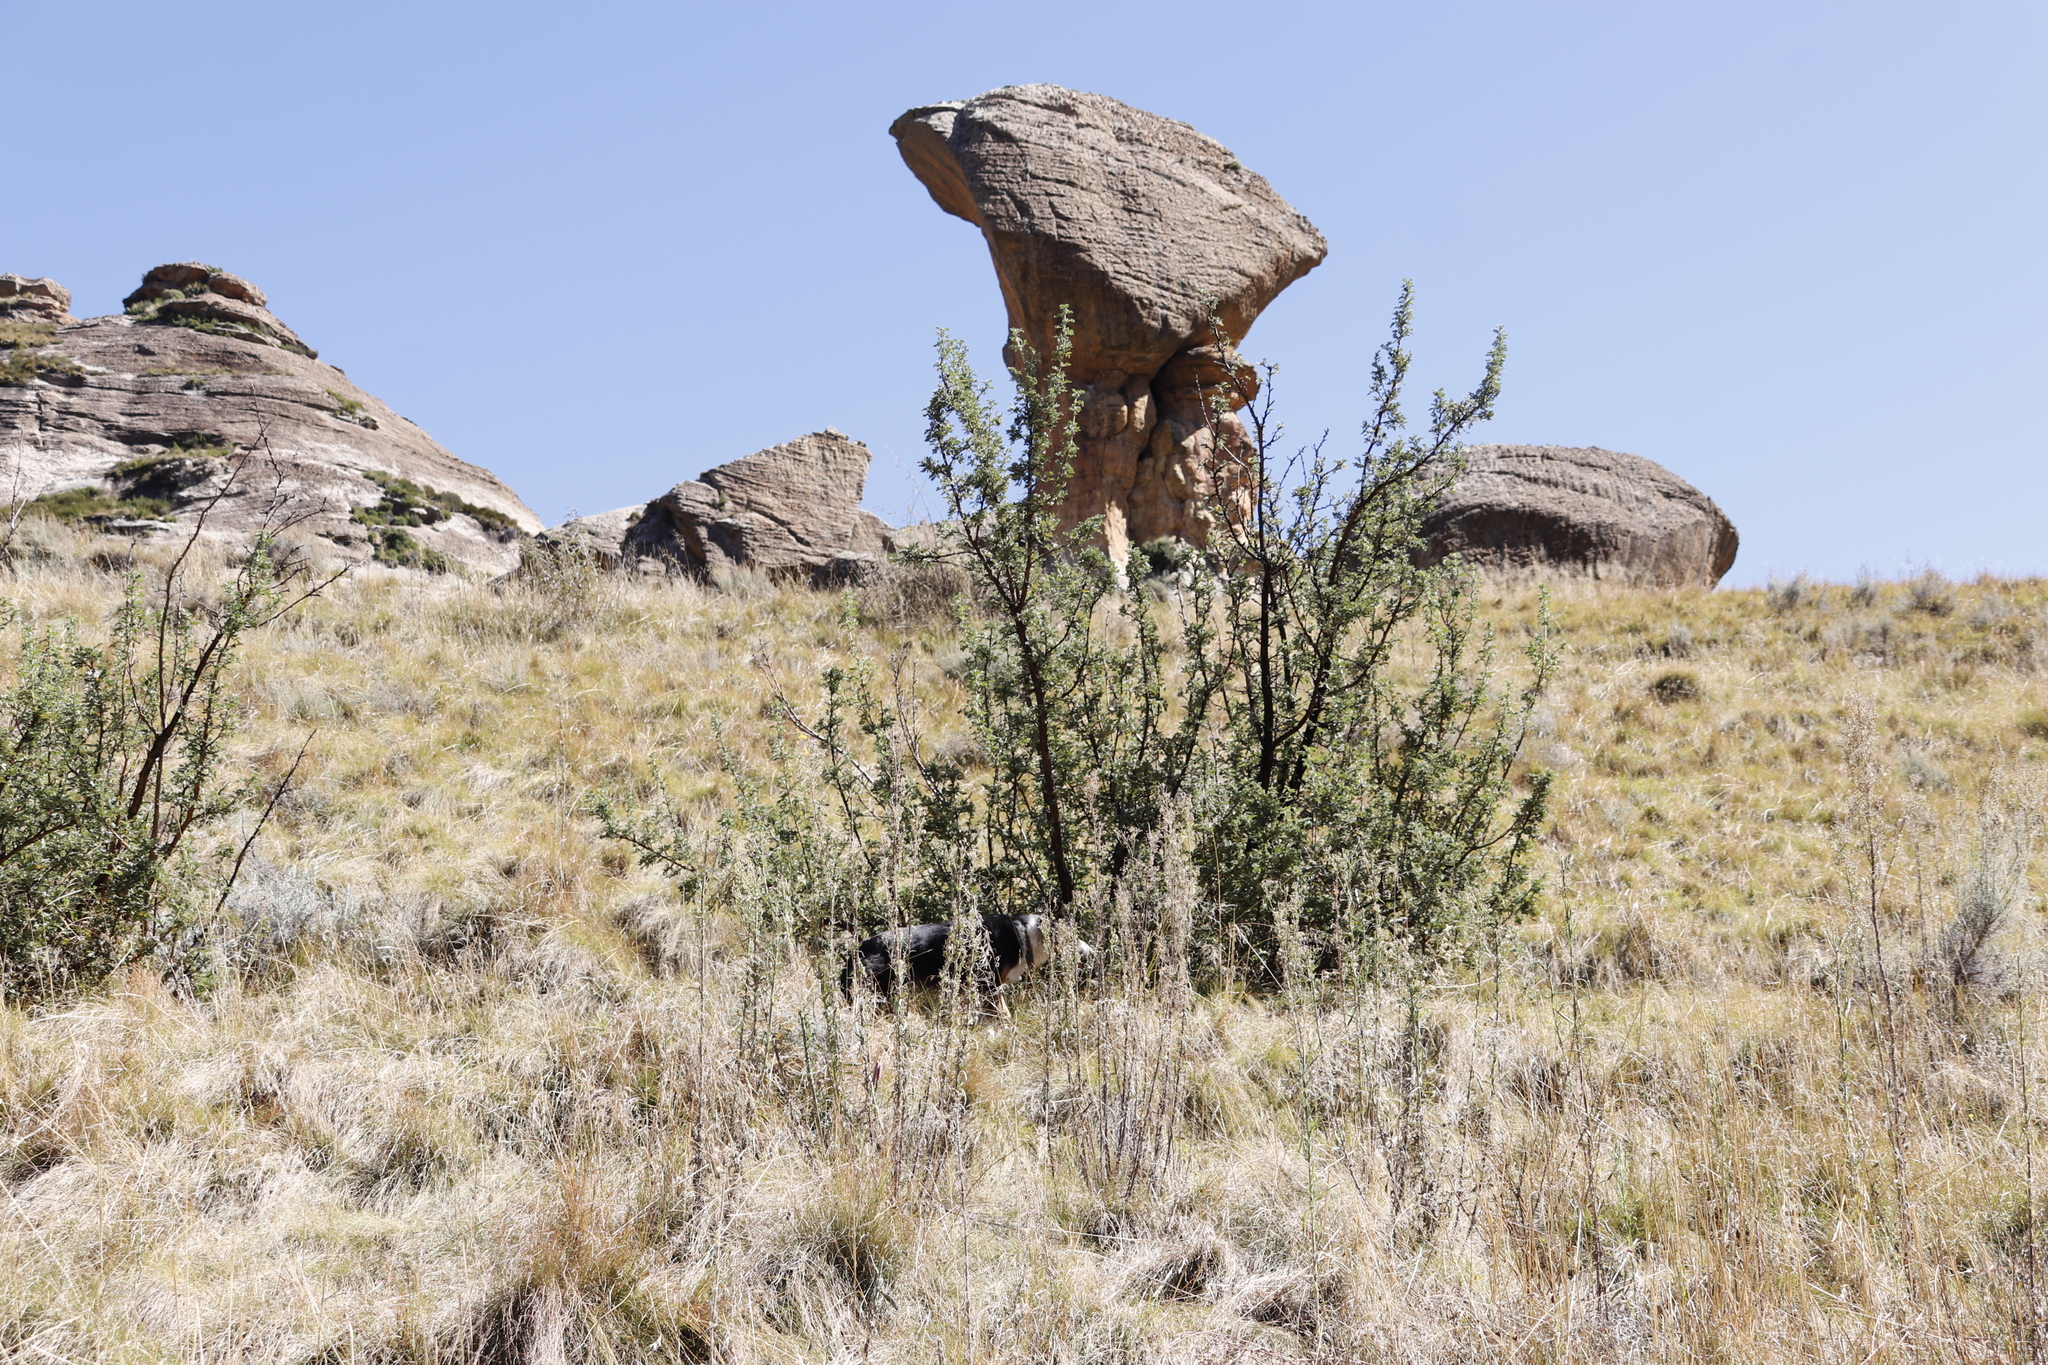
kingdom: Plantae
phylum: Tracheophyta
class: Magnoliopsida
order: Rosales
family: Rosaceae
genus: Leucosidea
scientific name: Leucosidea sericea
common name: Oldwood
